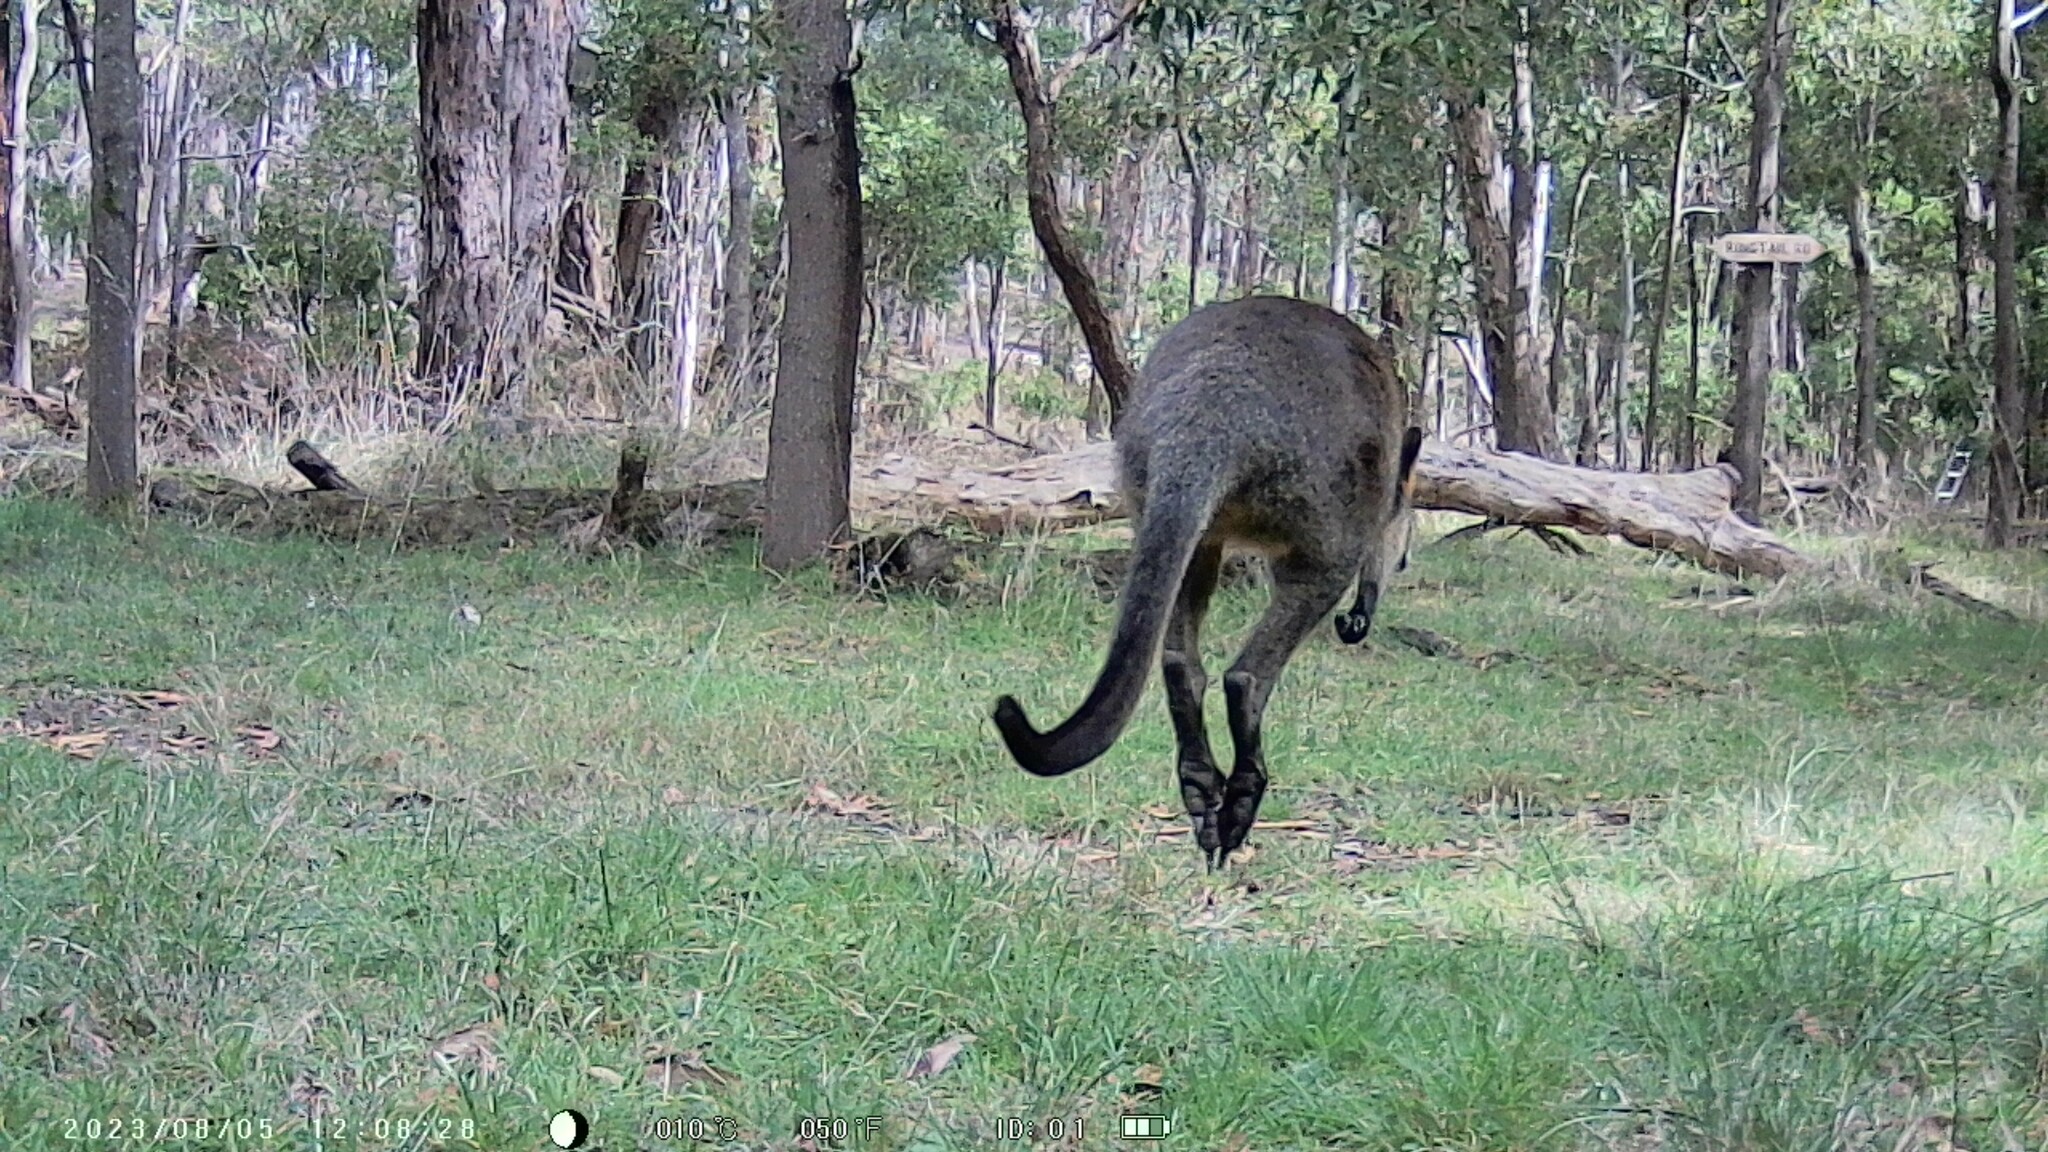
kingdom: Animalia
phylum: Chordata
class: Mammalia
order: Diprotodontia
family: Macropodidae
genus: Wallabia
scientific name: Wallabia bicolor
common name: Swamp wallaby
